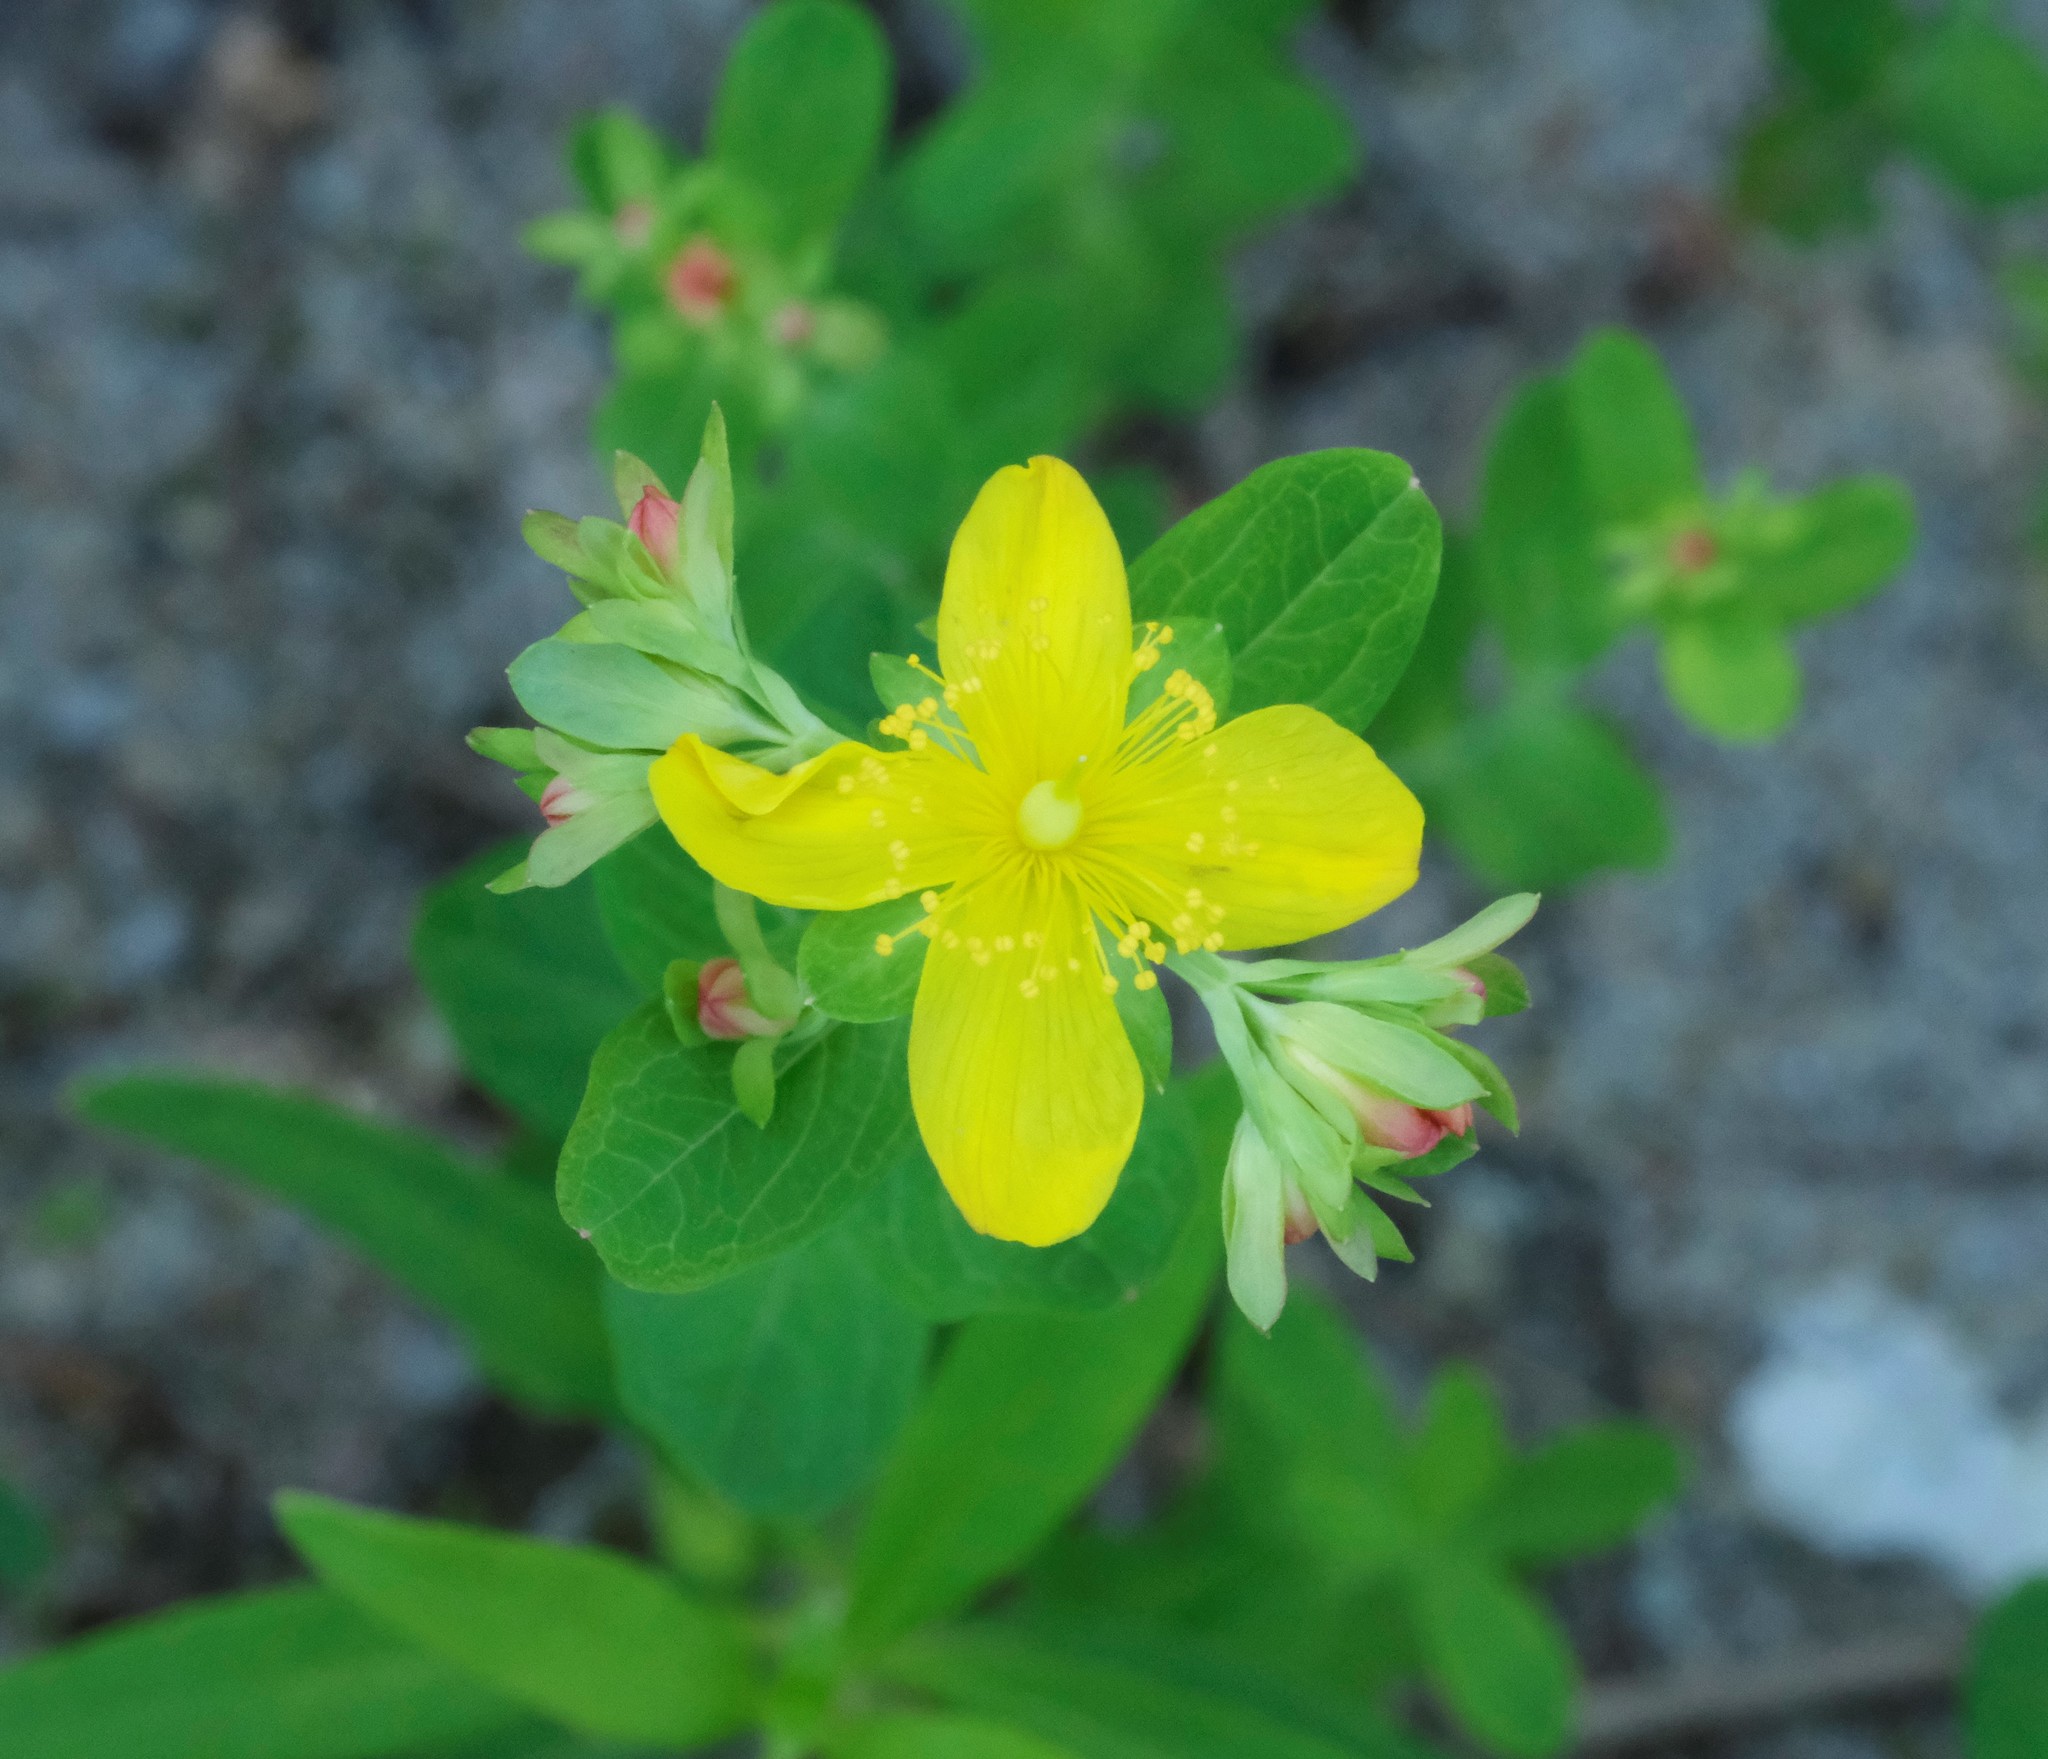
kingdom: Plantae
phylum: Tracheophyta
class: Magnoliopsida
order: Malpighiales
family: Hypericaceae
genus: Hypericum
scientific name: Hypericum ellipticum
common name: Elliptic st. john's-wort
